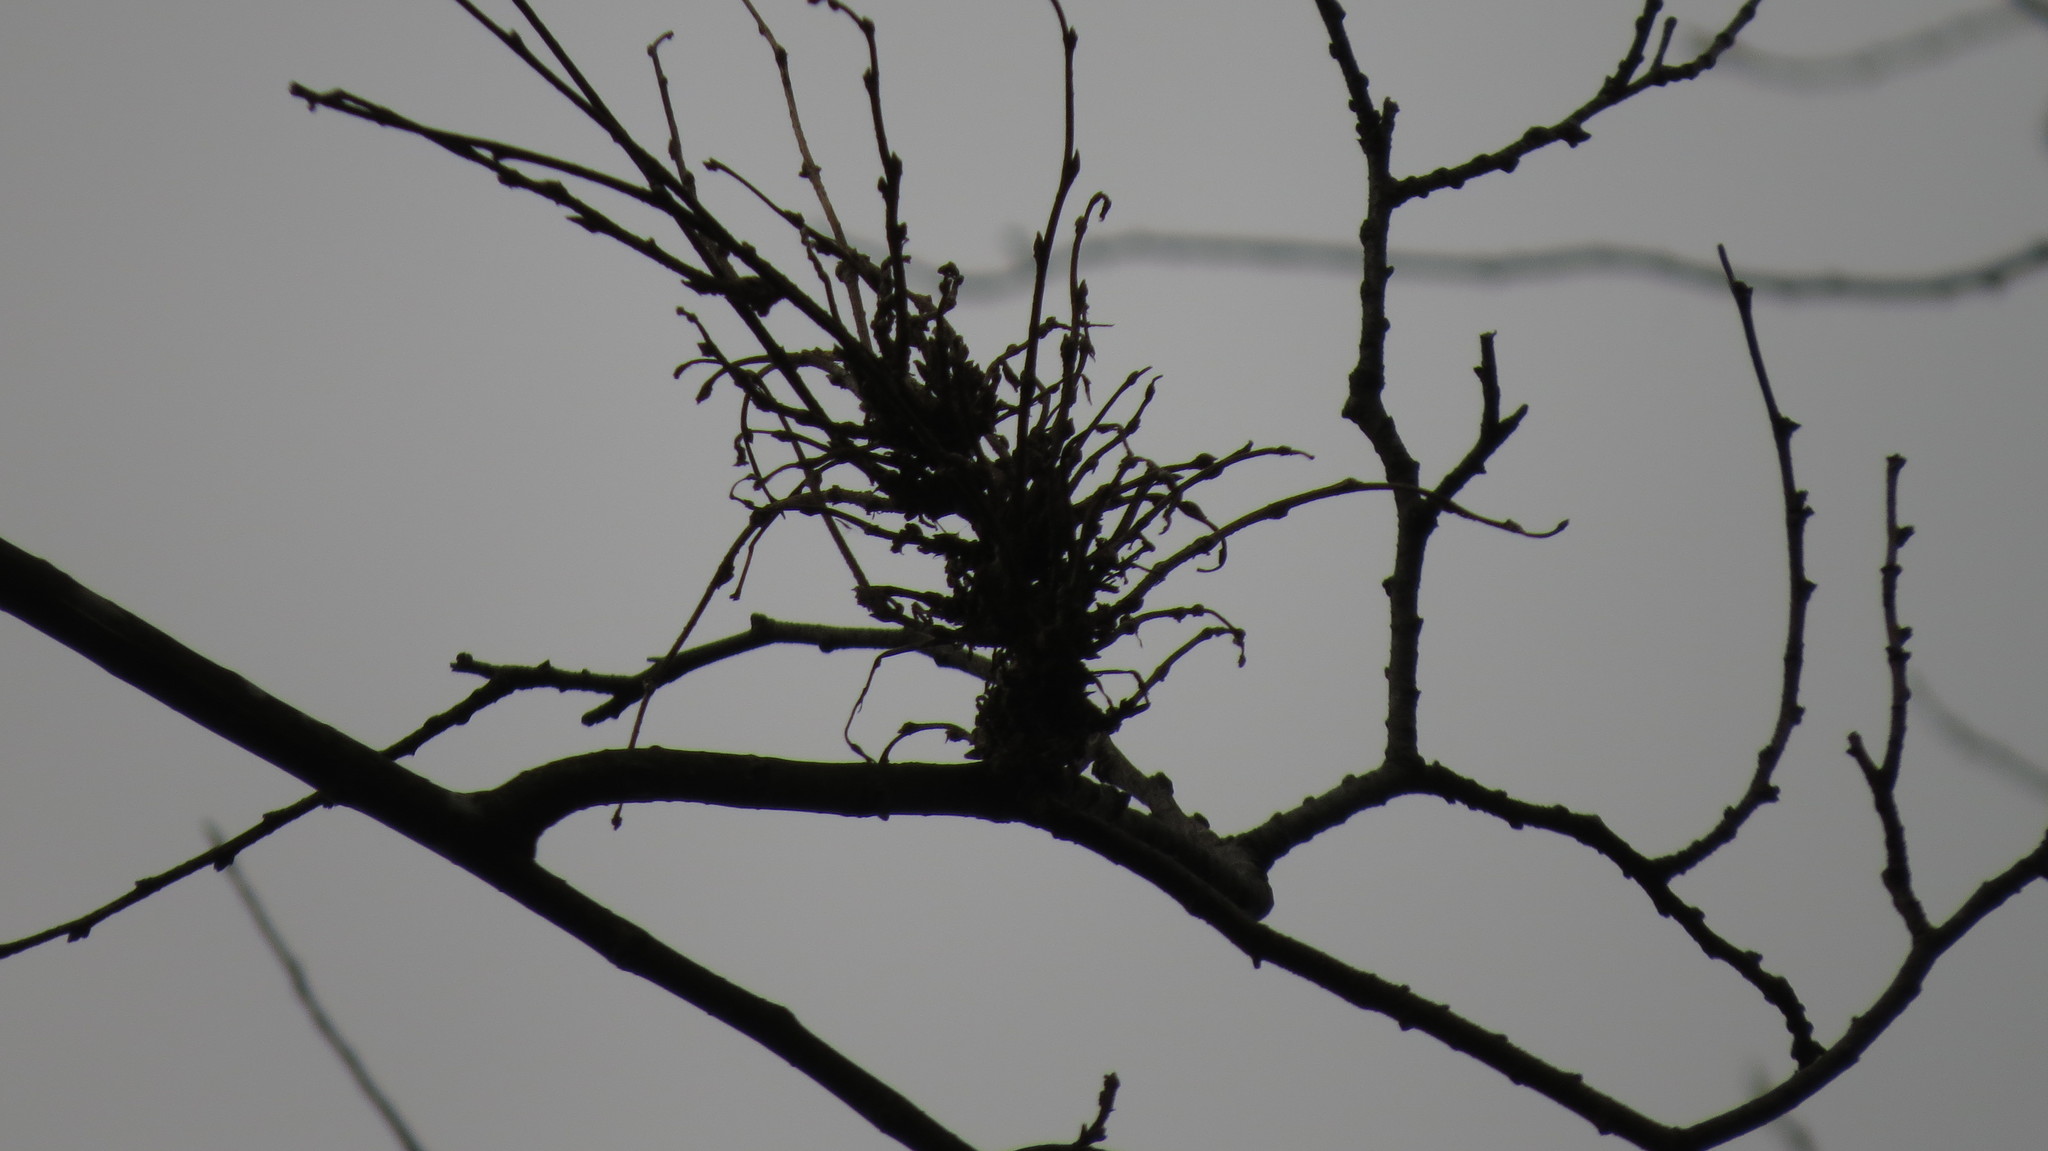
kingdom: Animalia
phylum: Arthropoda
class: Arachnida
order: Trombidiformes
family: Eriophyidae
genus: Aceria
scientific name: Aceria
